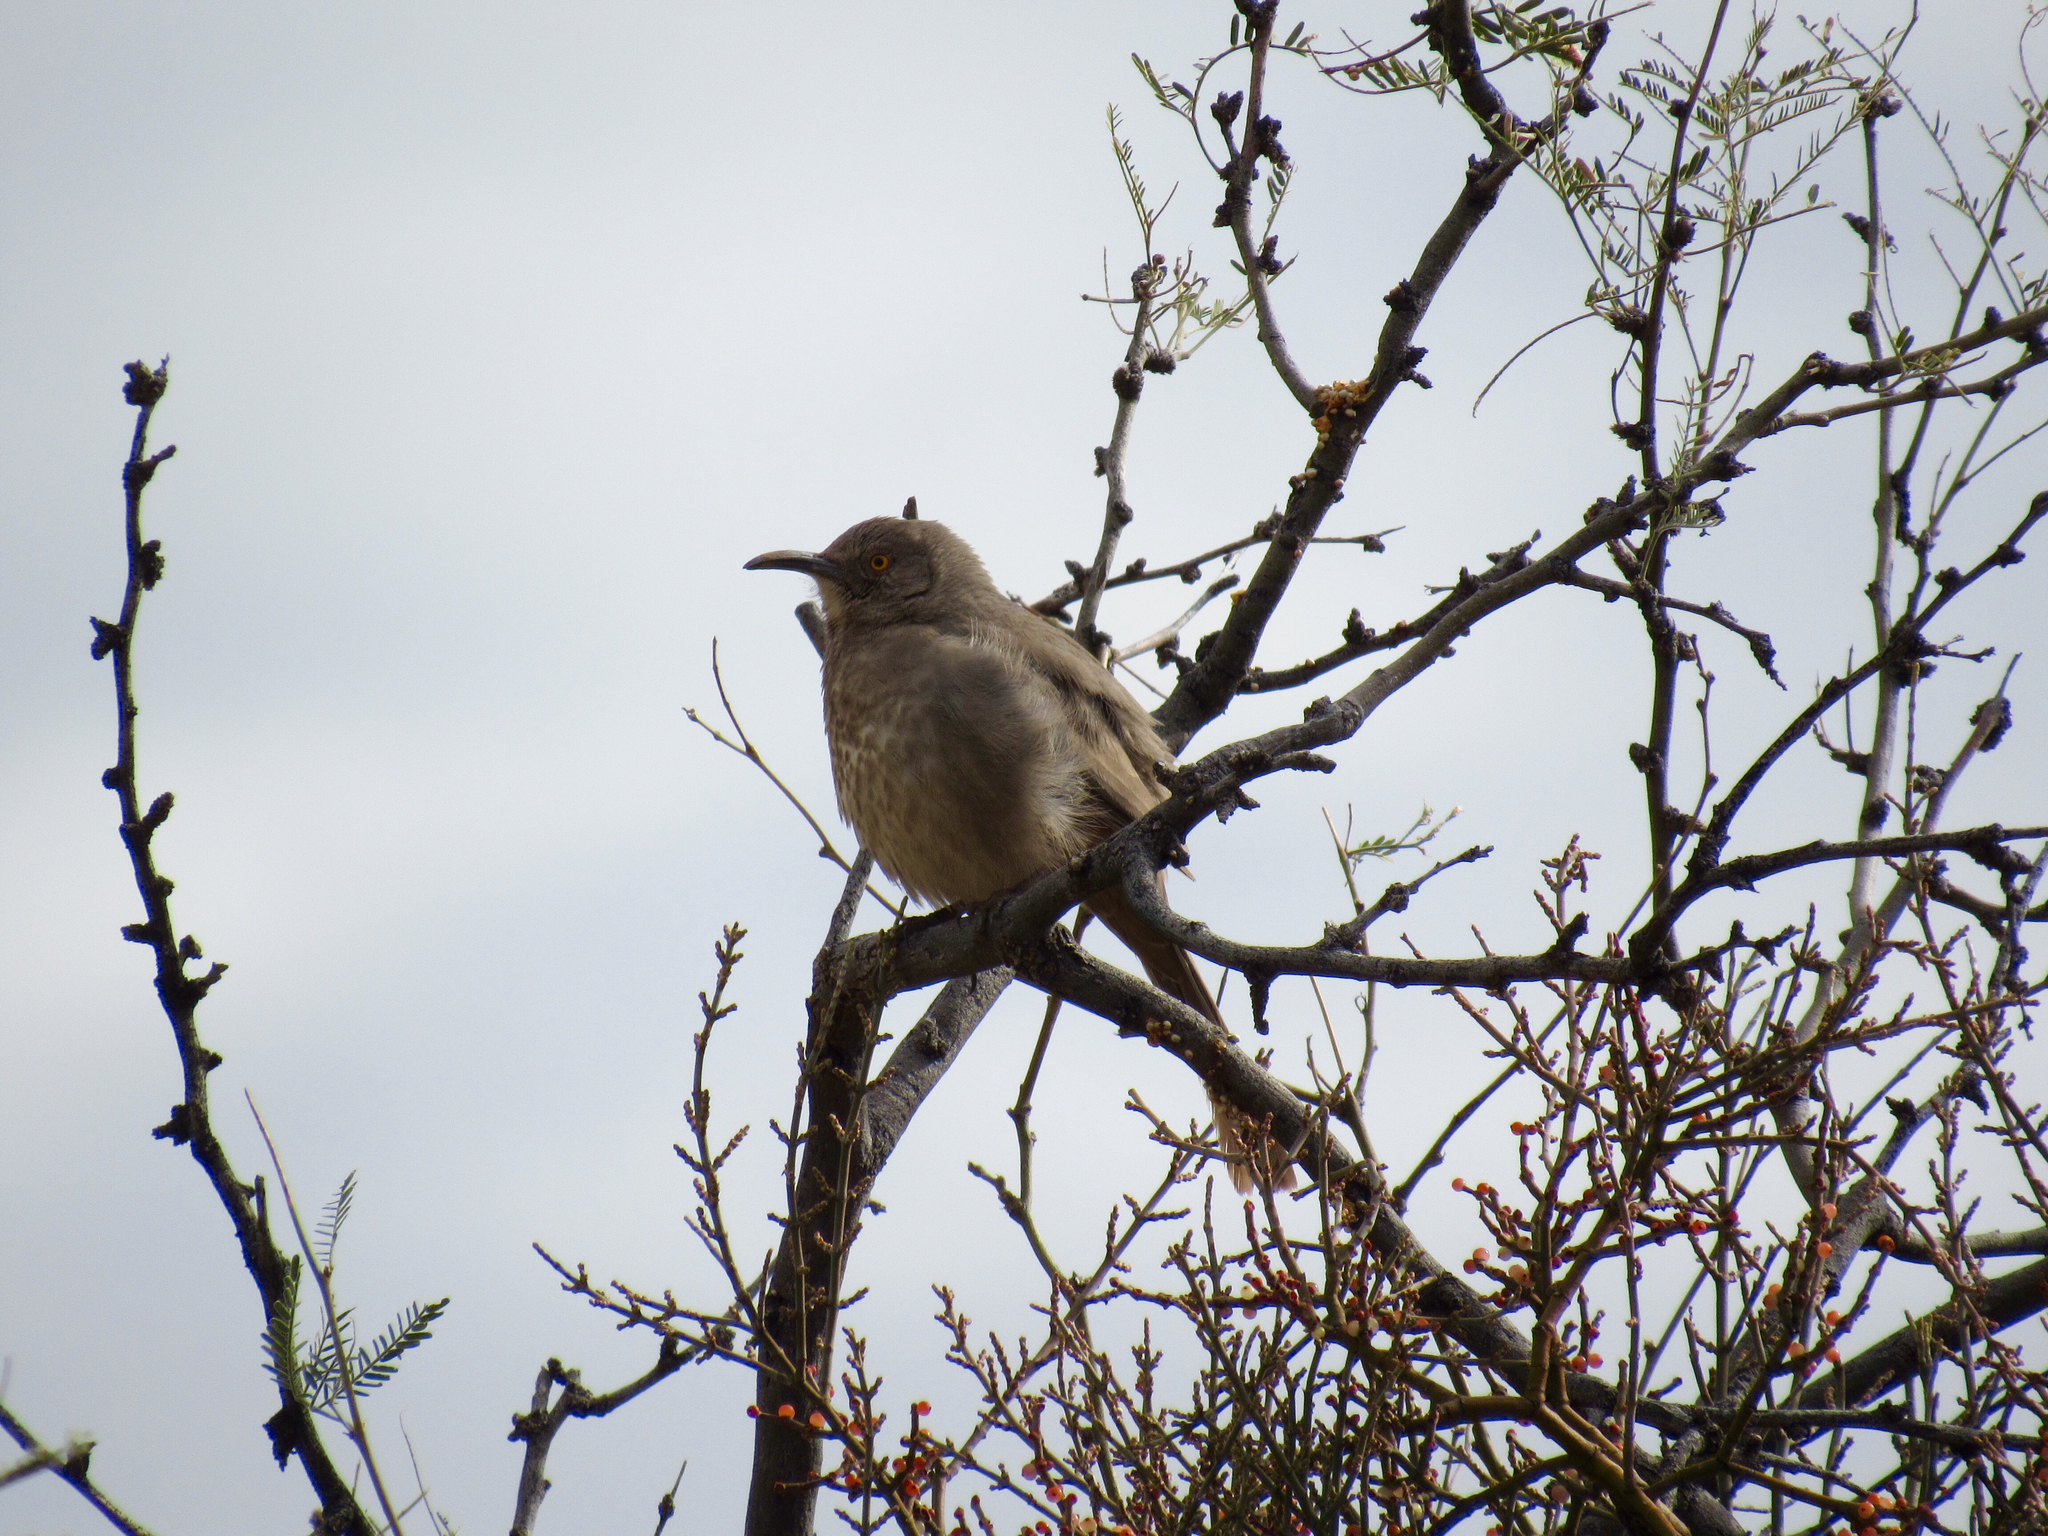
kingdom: Animalia
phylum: Chordata
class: Aves
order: Passeriformes
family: Mimidae
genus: Toxostoma
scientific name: Toxostoma curvirostre
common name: Curve-billed thrasher
